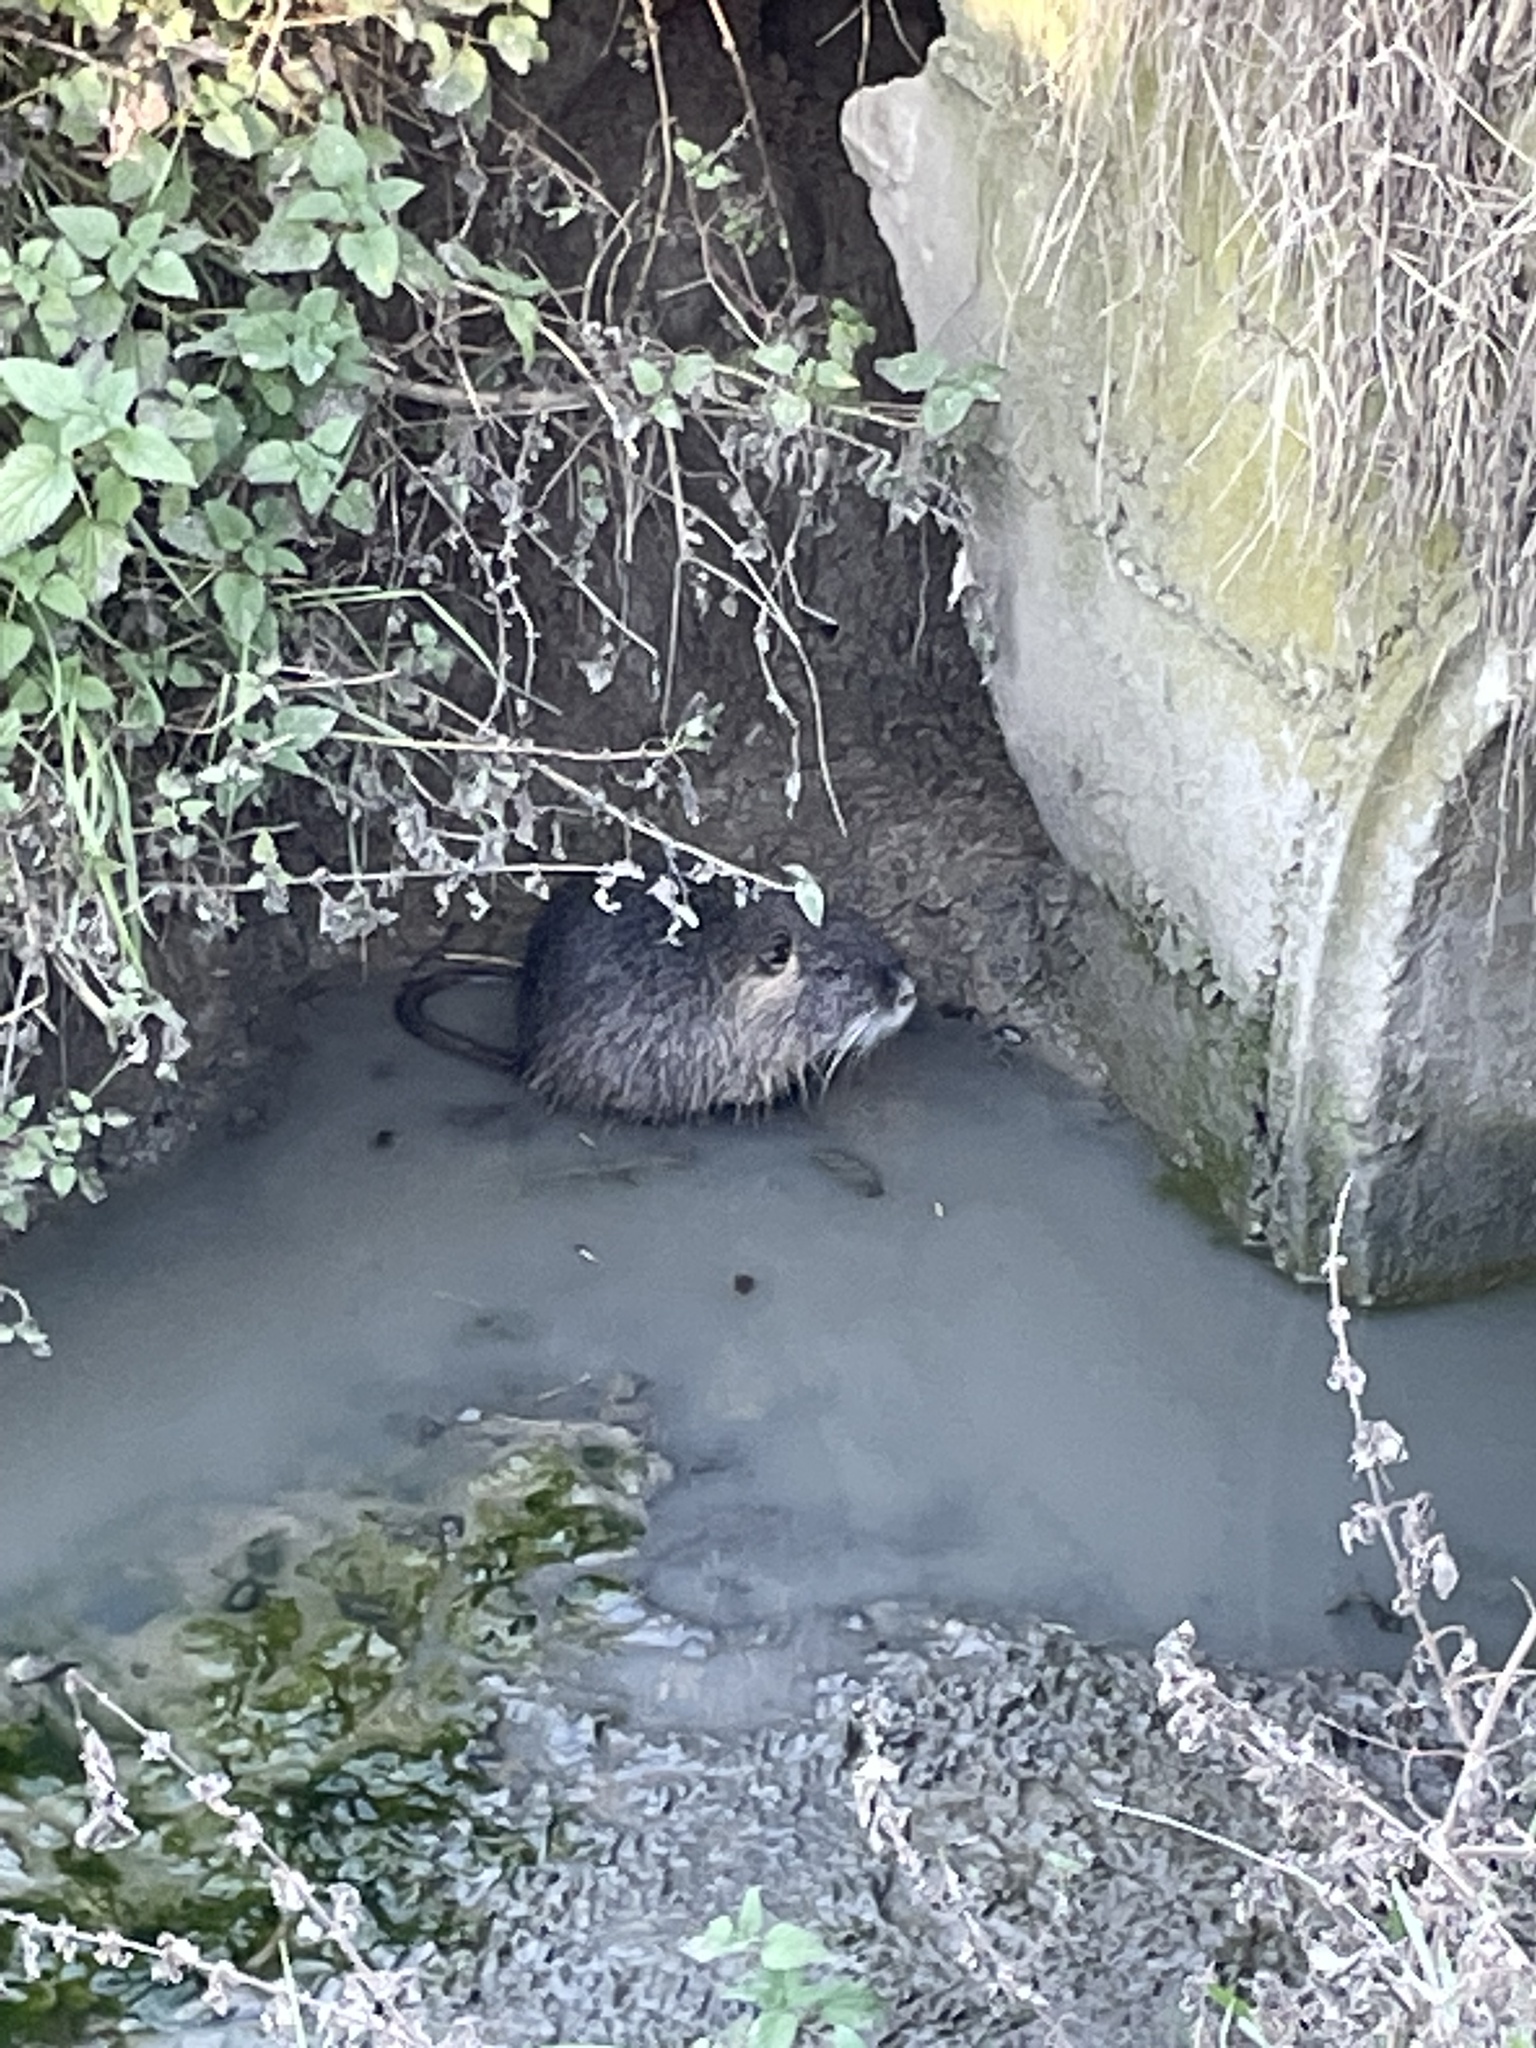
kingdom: Animalia
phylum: Chordata
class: Mammalia
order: Rodentia
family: Myocastoridae
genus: Myocastor
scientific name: Myocastor coypus
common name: Coypu
